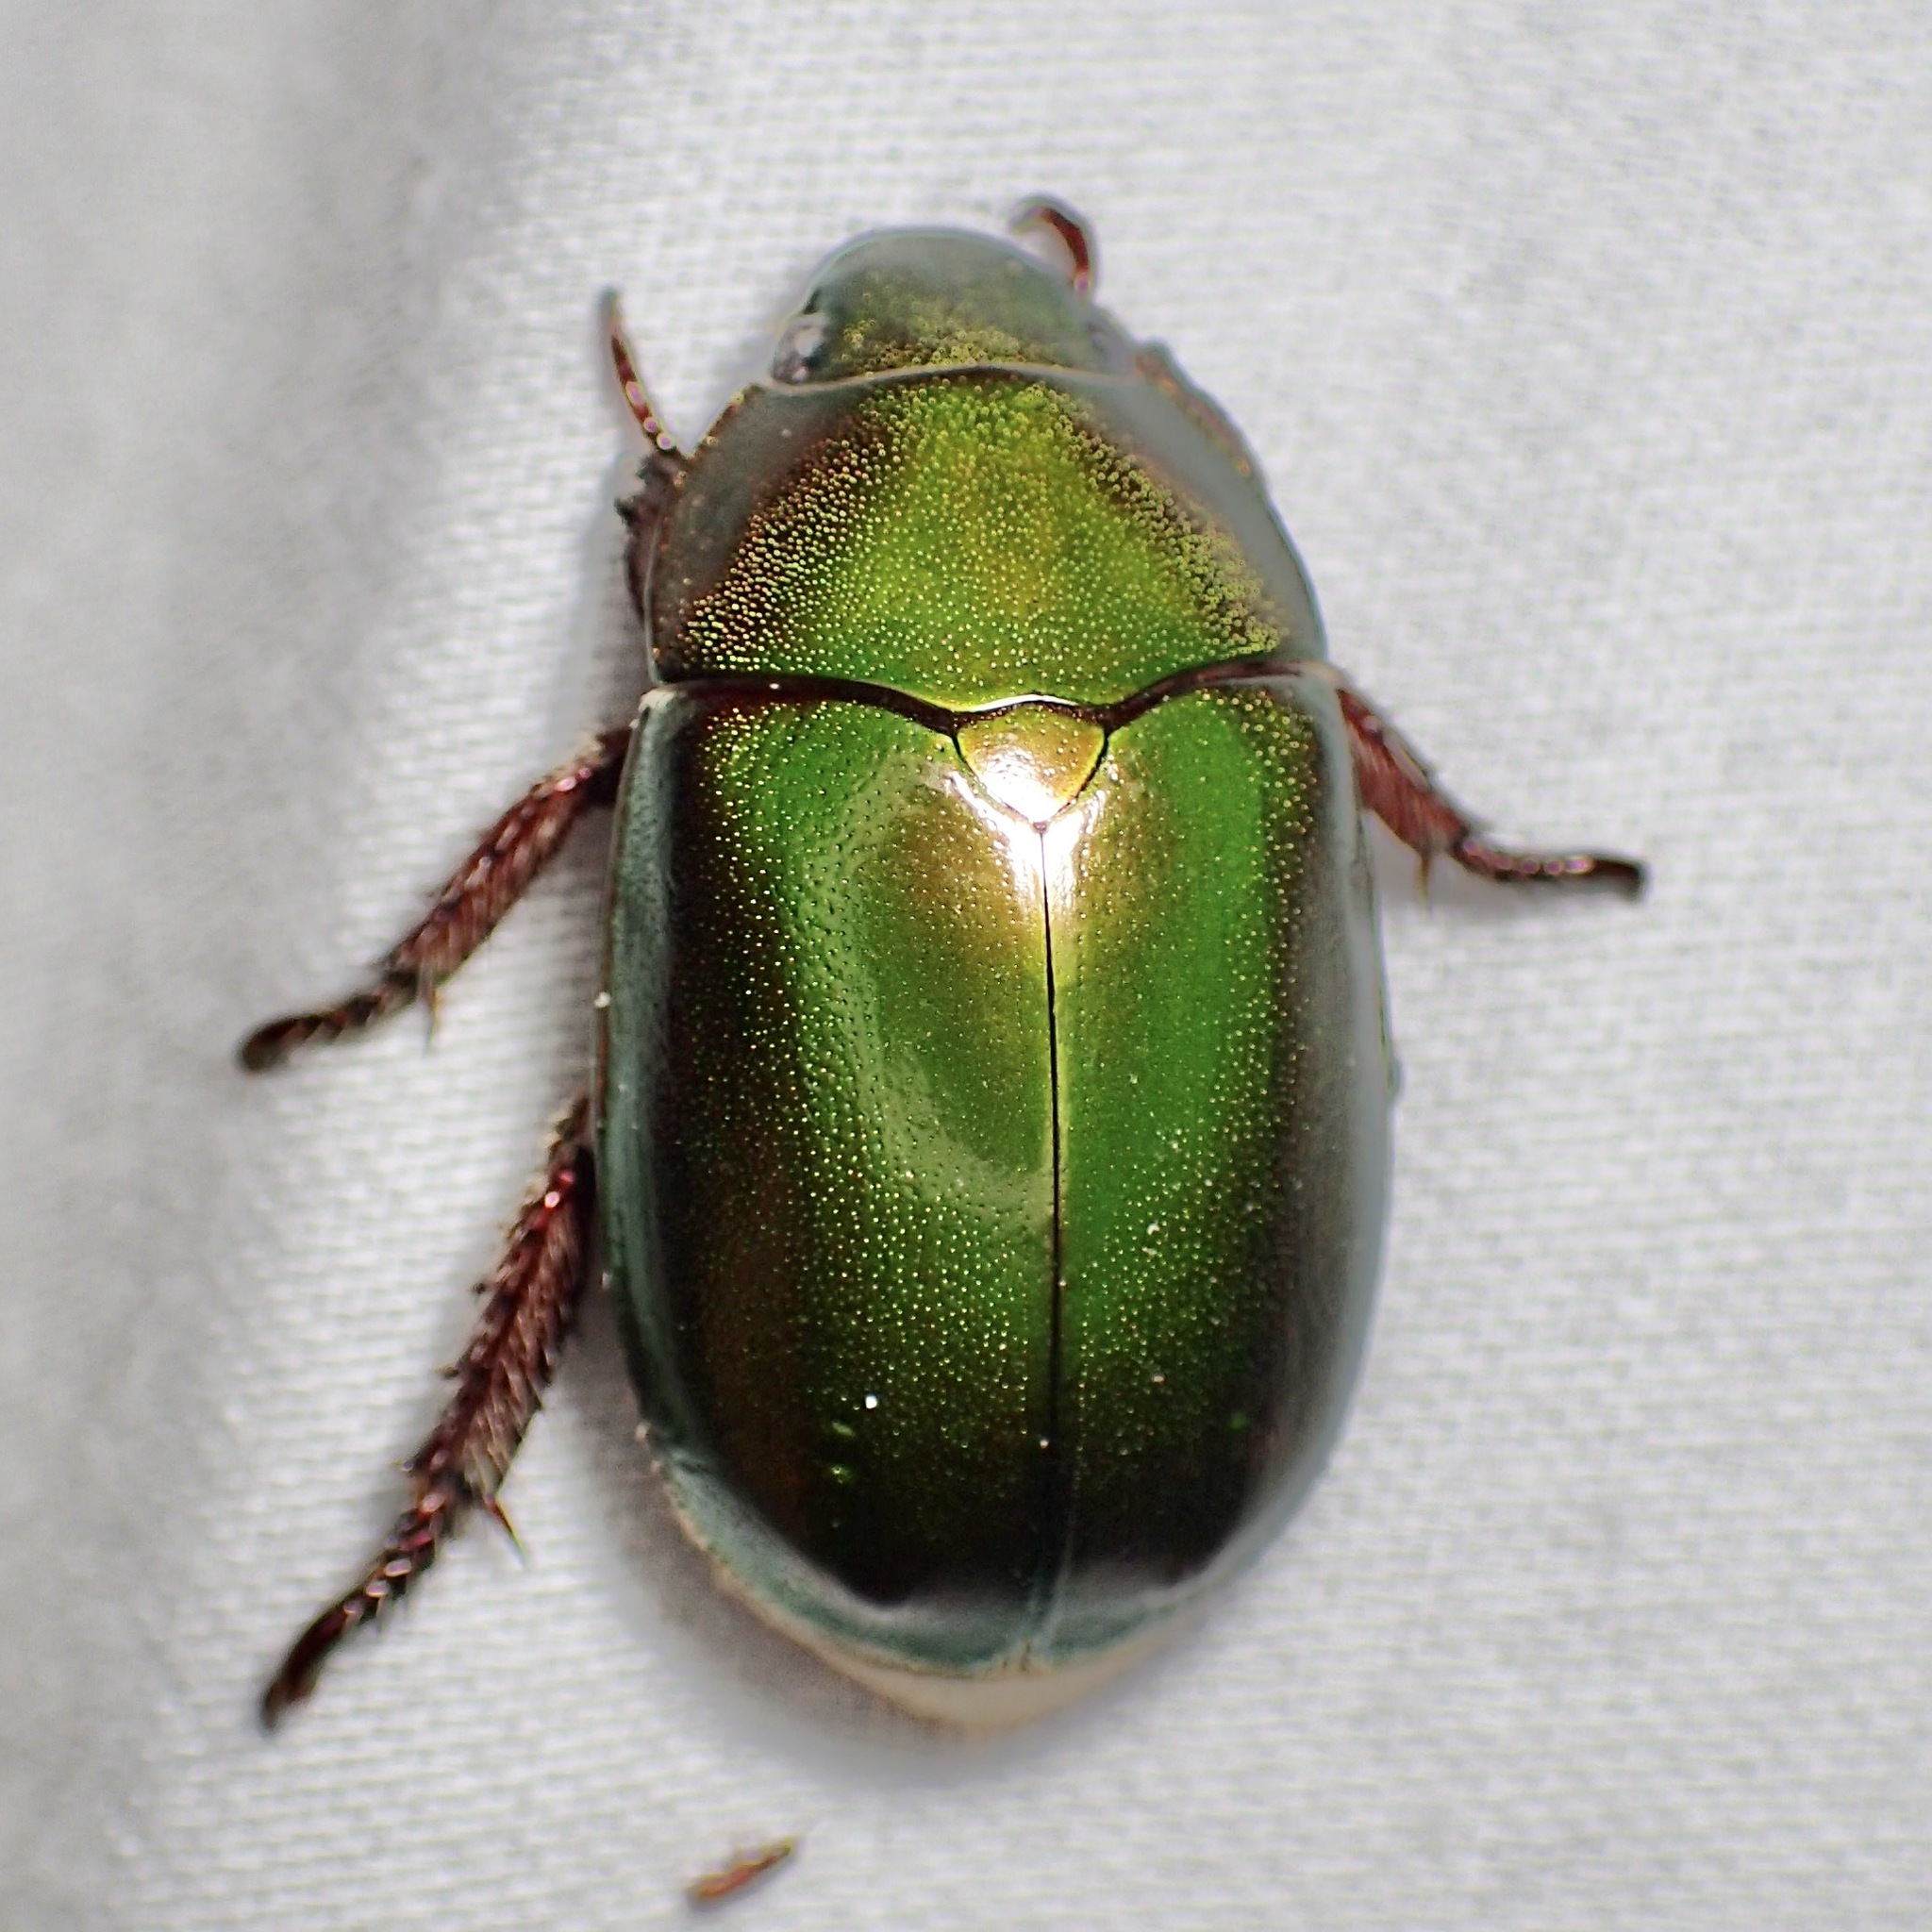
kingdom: Animalia
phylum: Arthropoda
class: Insecta
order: Coleoptera
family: Scarabaeidae
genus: Anoplognathus
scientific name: Anoplognathus punctulatus
